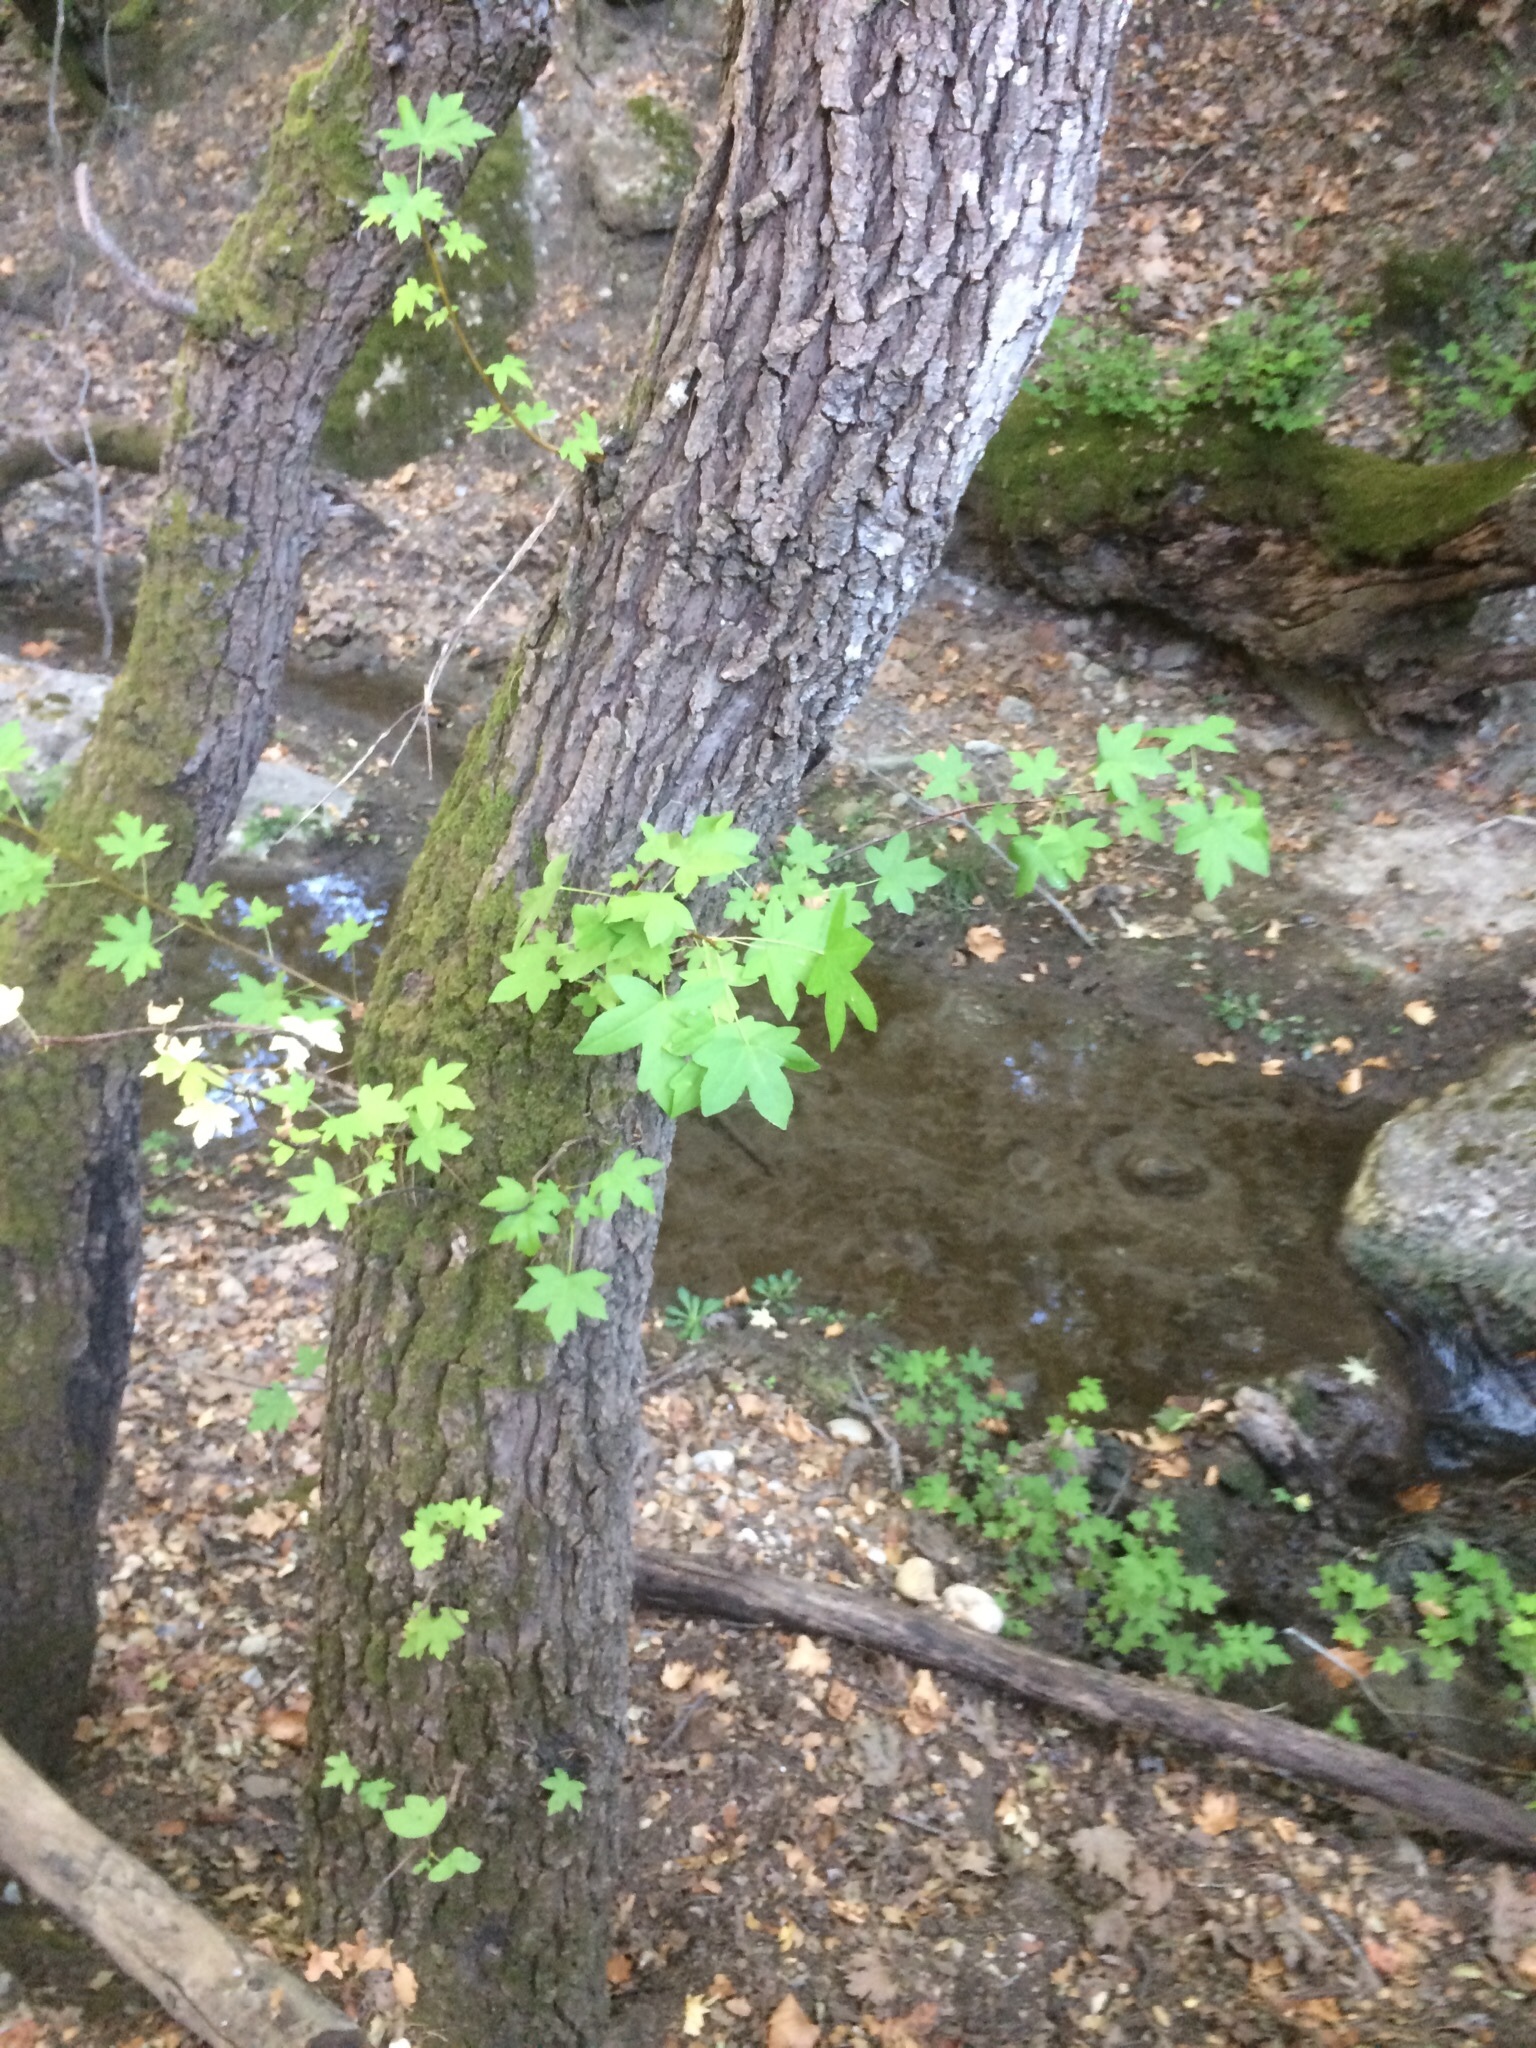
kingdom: Plantae
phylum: Tracheophyta
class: Magnoliopsida
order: Saxifragales
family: Altingiaceae
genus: Liquidambar
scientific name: Liquidambar orientalis
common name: Oriental sweetgum
